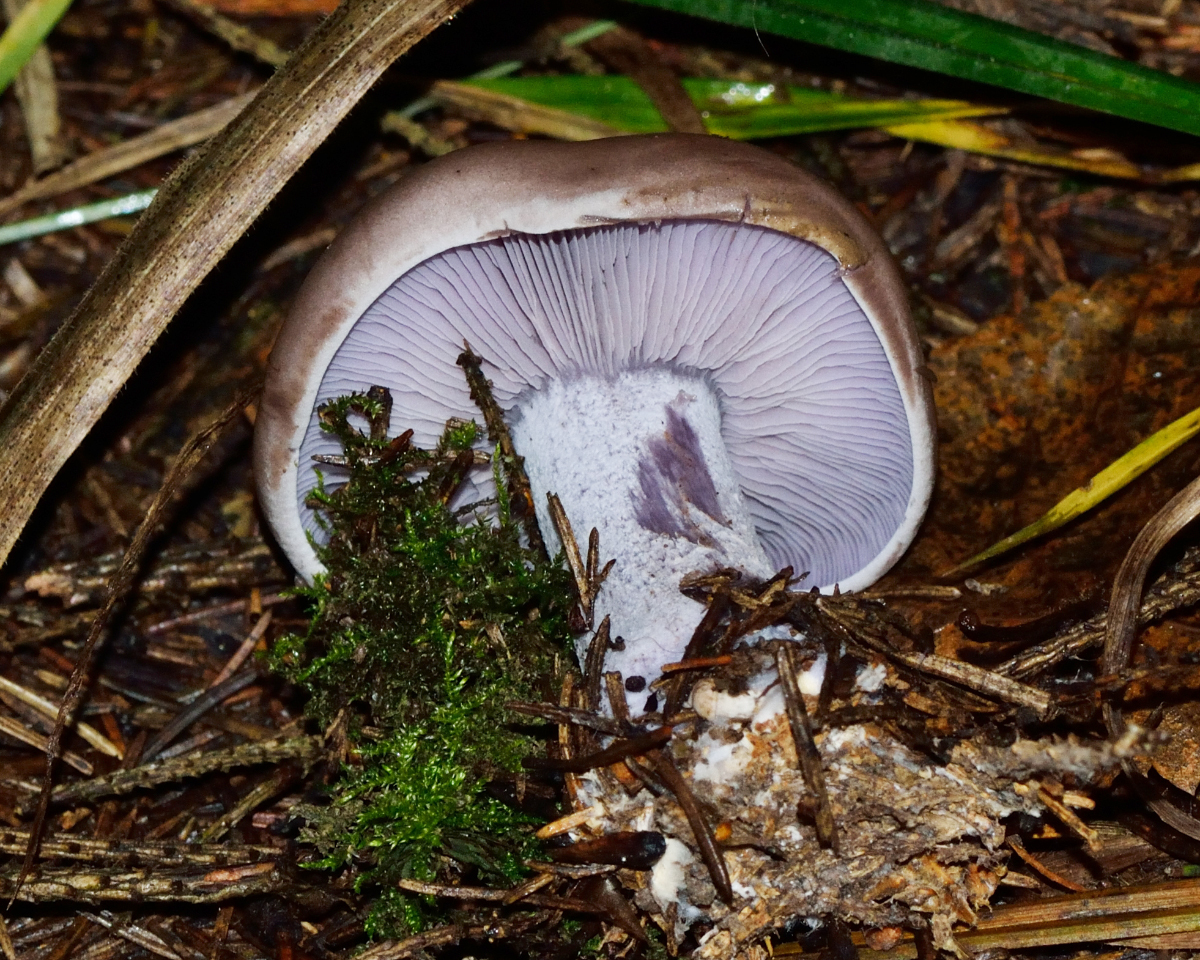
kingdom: Fungi
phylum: Basidiomycota
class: Agaricomycetes
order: Agaricales
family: Tricholomataceae
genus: Collybia
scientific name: Collybia
